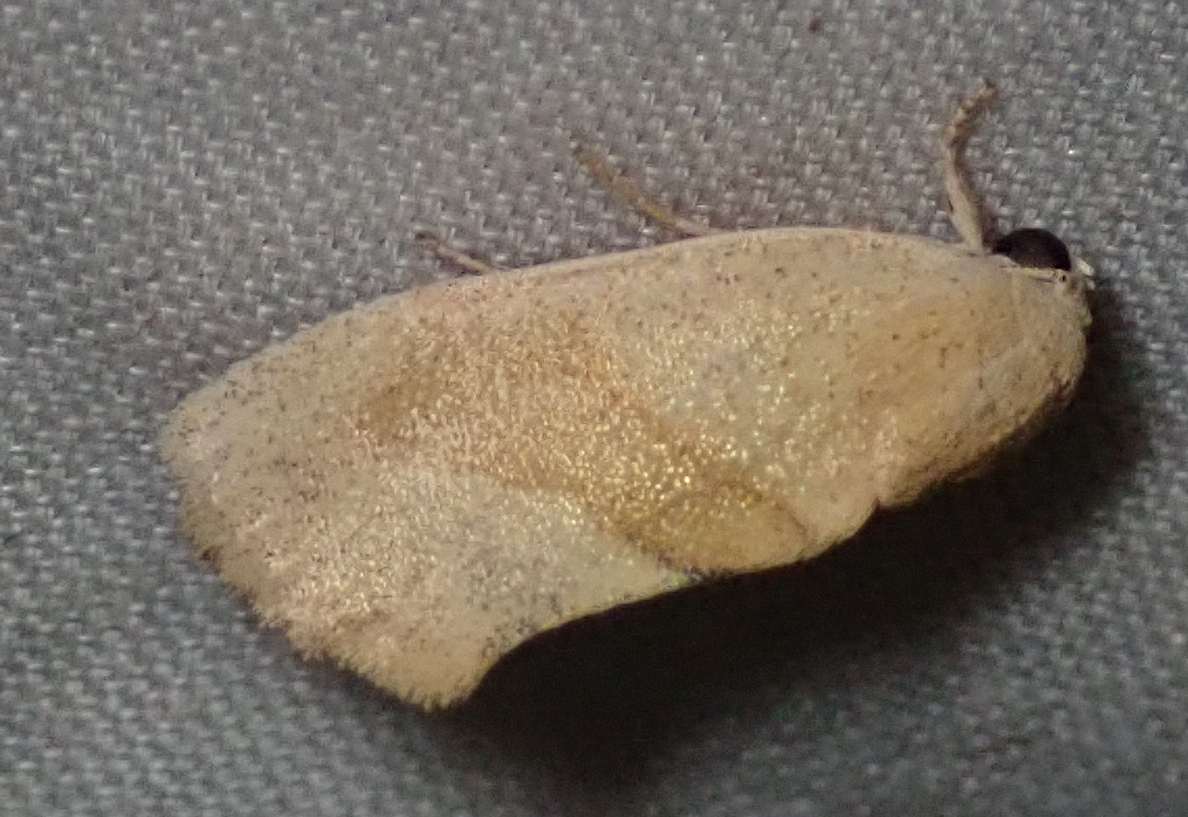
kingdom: Animalia
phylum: Arthropoda
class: Insecta
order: Lepidoptera
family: Nolidae
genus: Neaxestis
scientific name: Neaxestis rhoda
